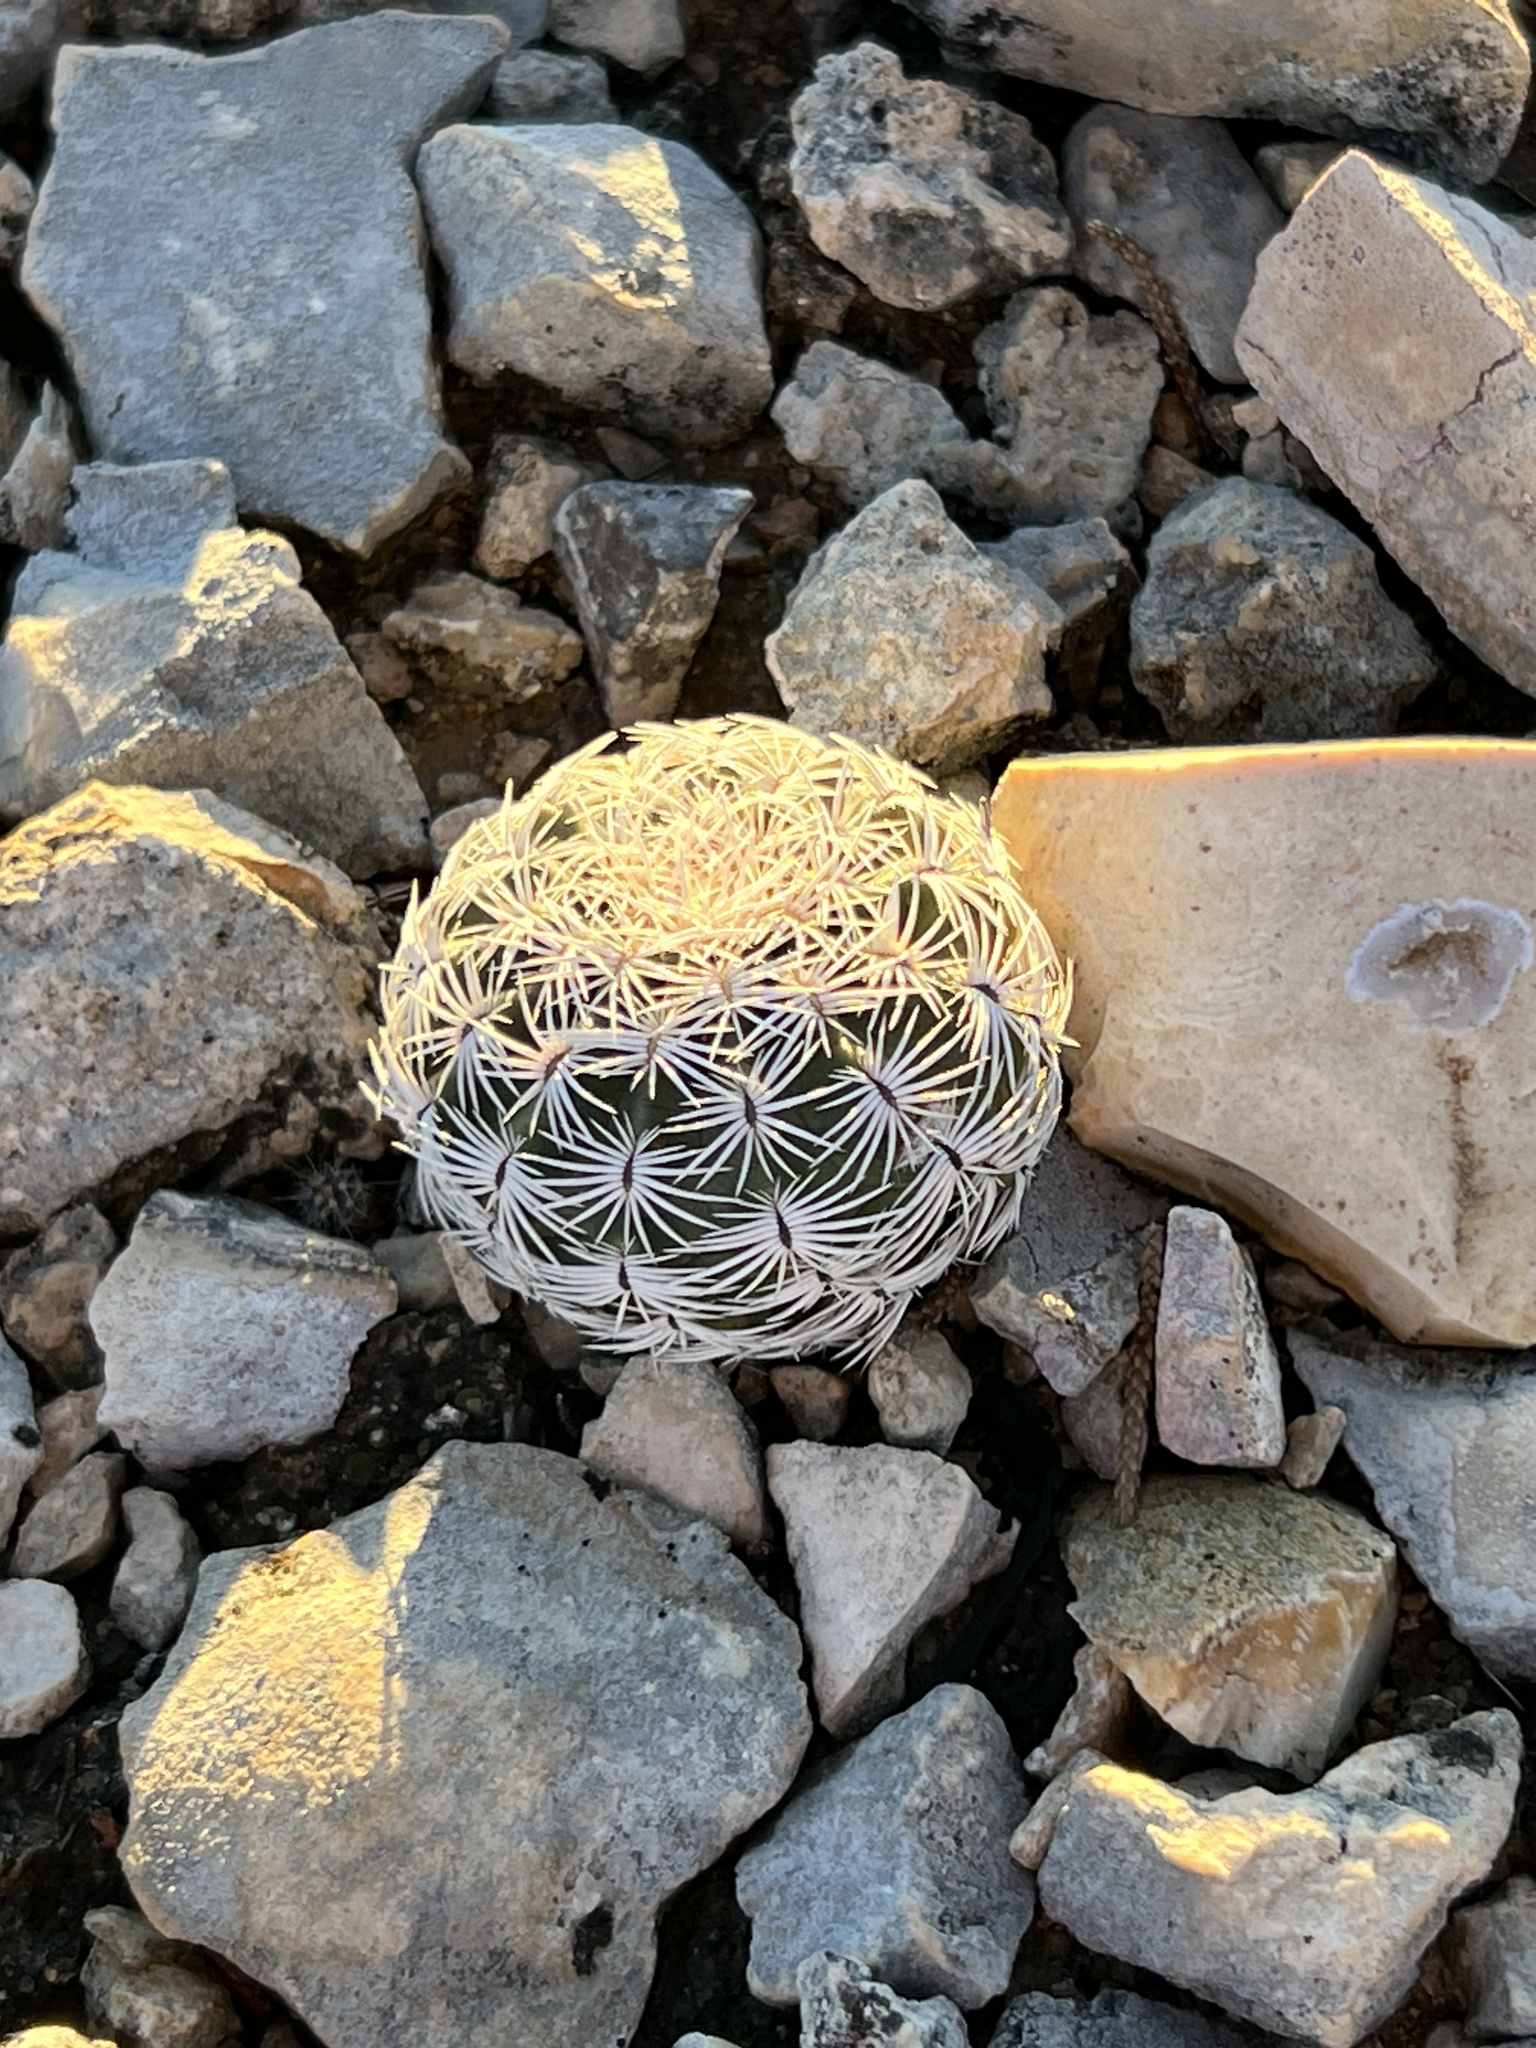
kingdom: Plantae
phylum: Tracheophyta
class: Magnoliopsida
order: Caryophyllales
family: Cactaceae
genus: Echinocereus
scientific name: Echinocereus reichenbachii
